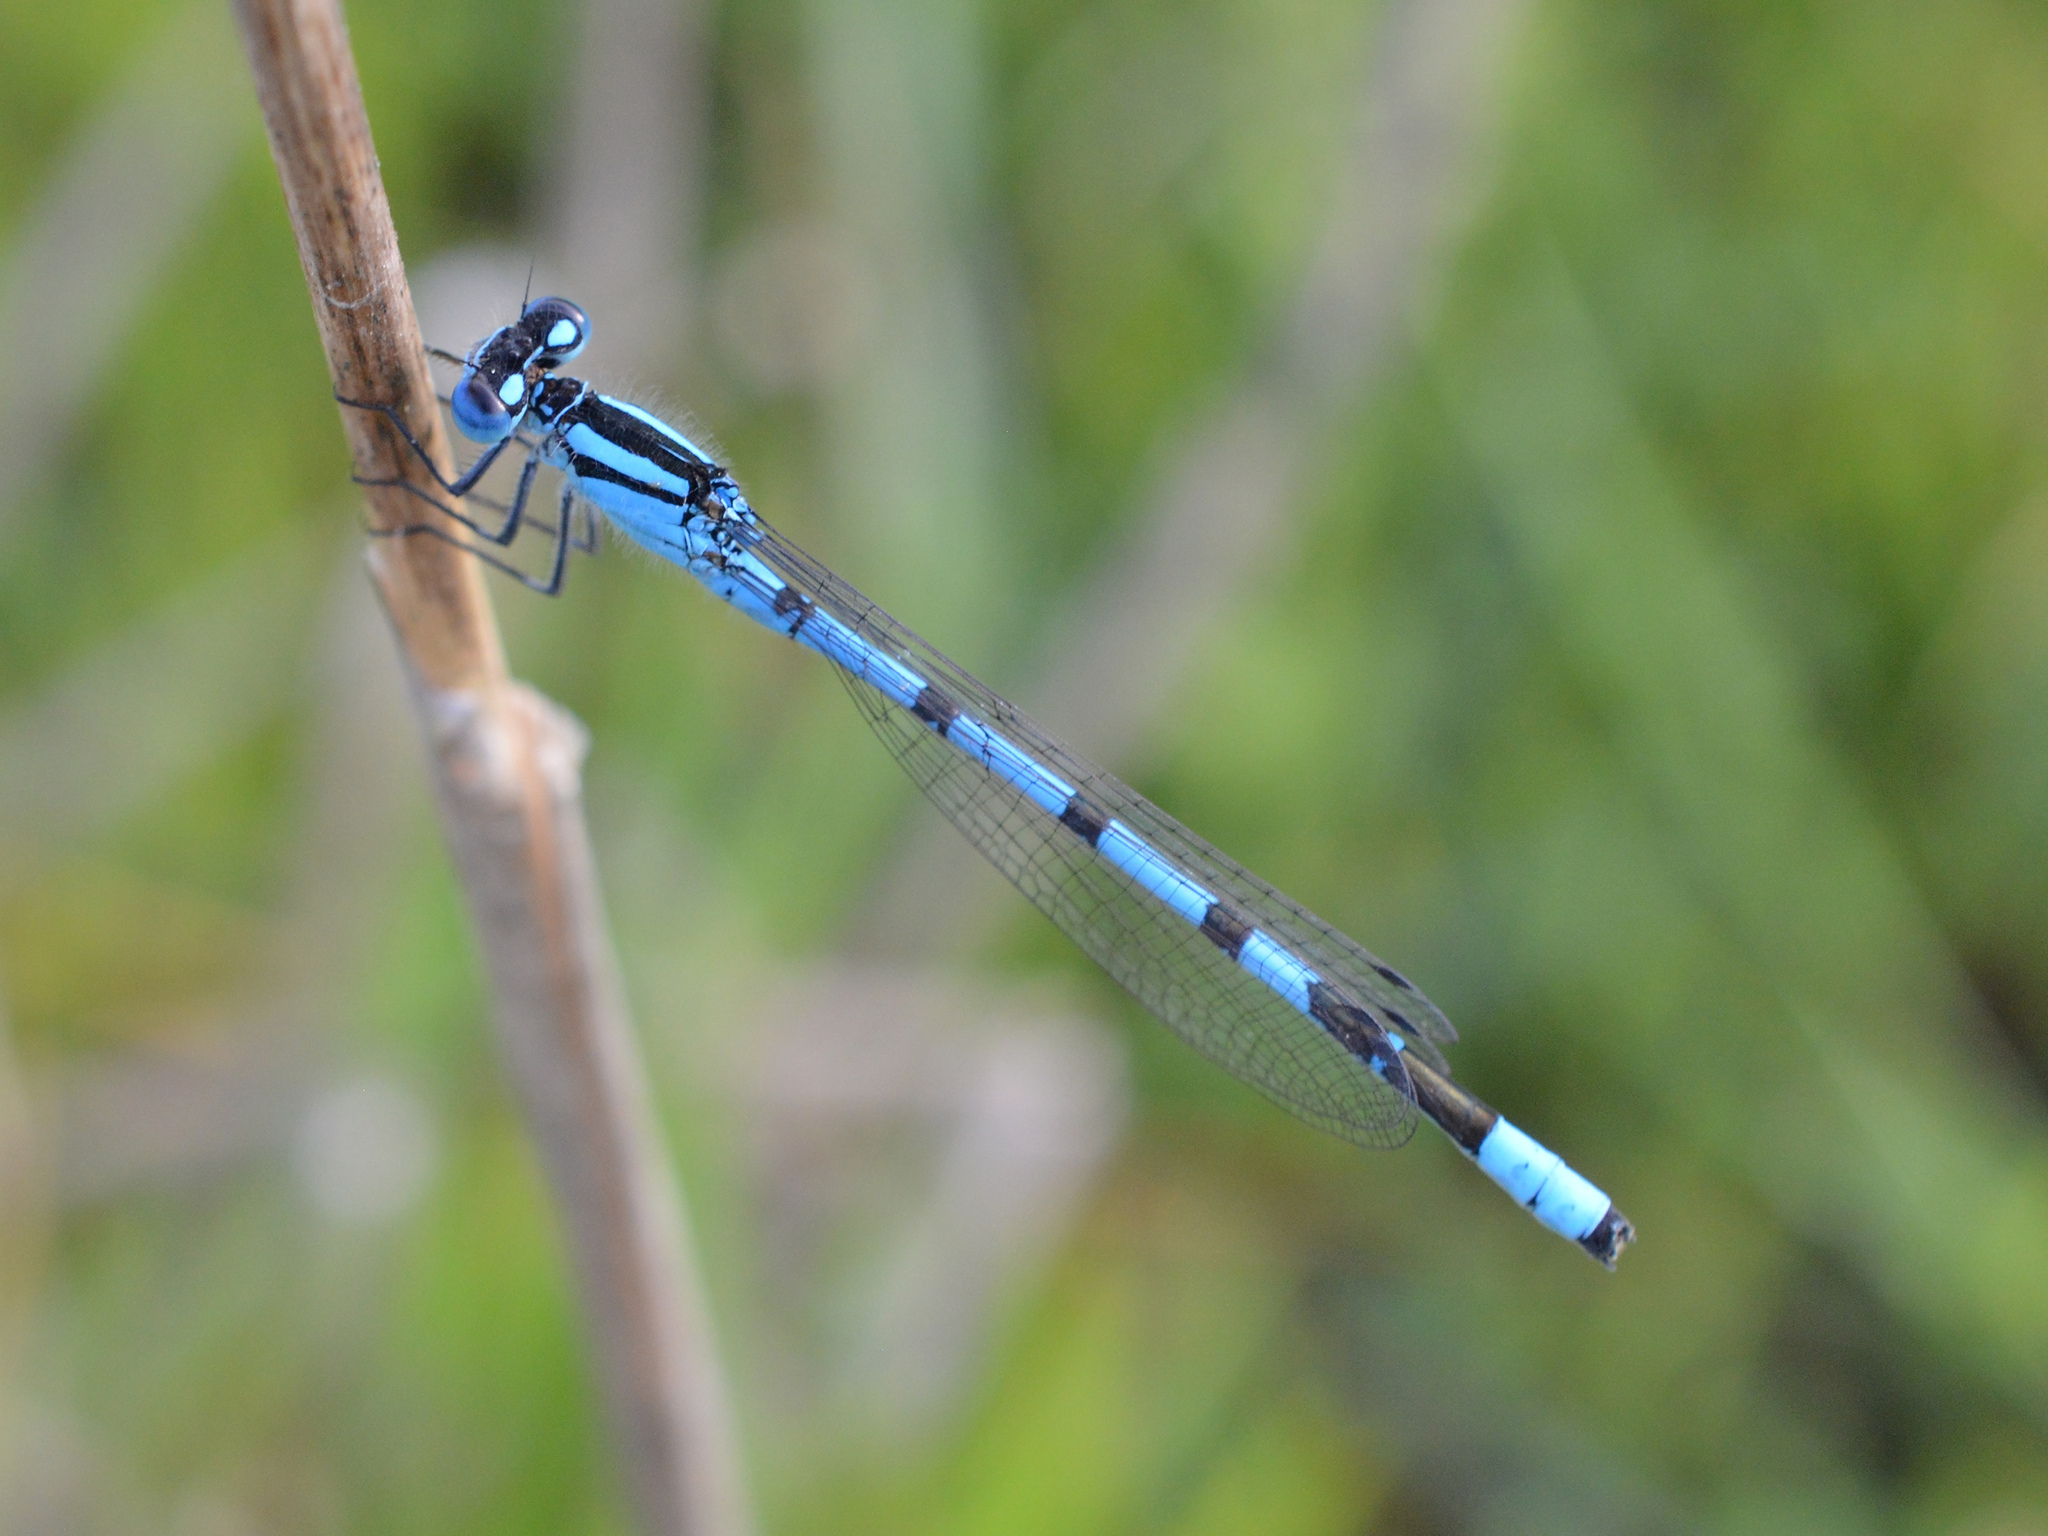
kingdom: Animalia
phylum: Arthropoda
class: Insecta
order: Odonata
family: Coenagrionidae
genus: Enallagma
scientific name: Enallagma cyathigerum
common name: Common blue damselfly
